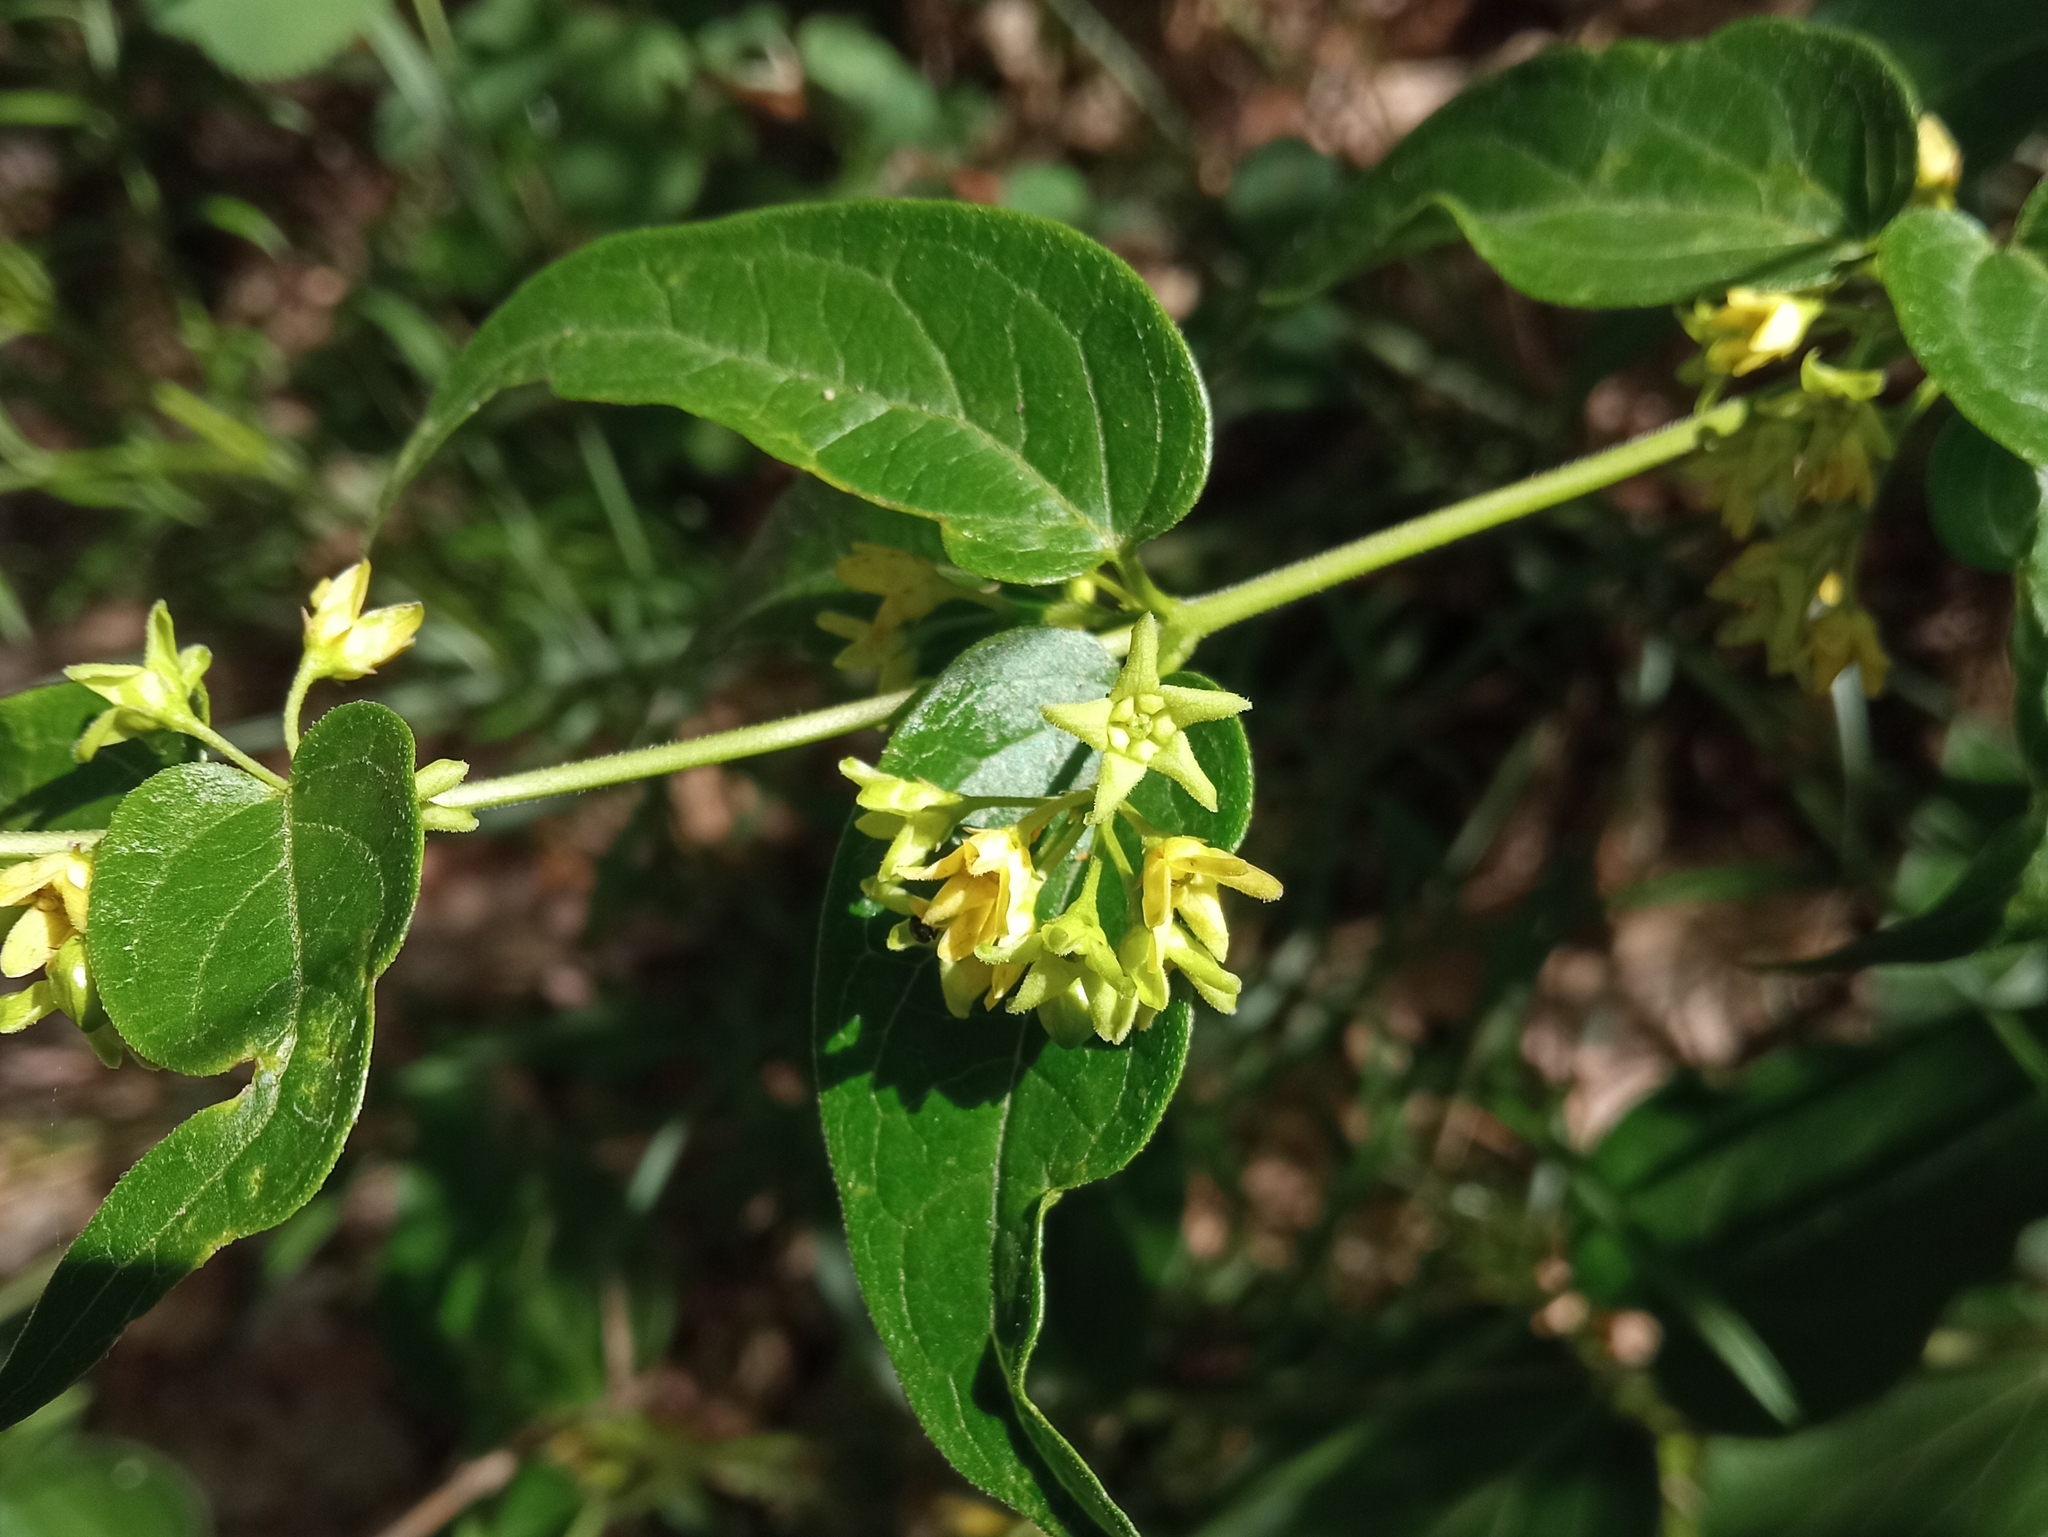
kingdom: Plantae
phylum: Tracheophyta
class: Magnoliopsida
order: Gentianales
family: Apocynaceae
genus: Vincetoxicum
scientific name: Vincetoxicum hirundinaria
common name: White swallowwort
